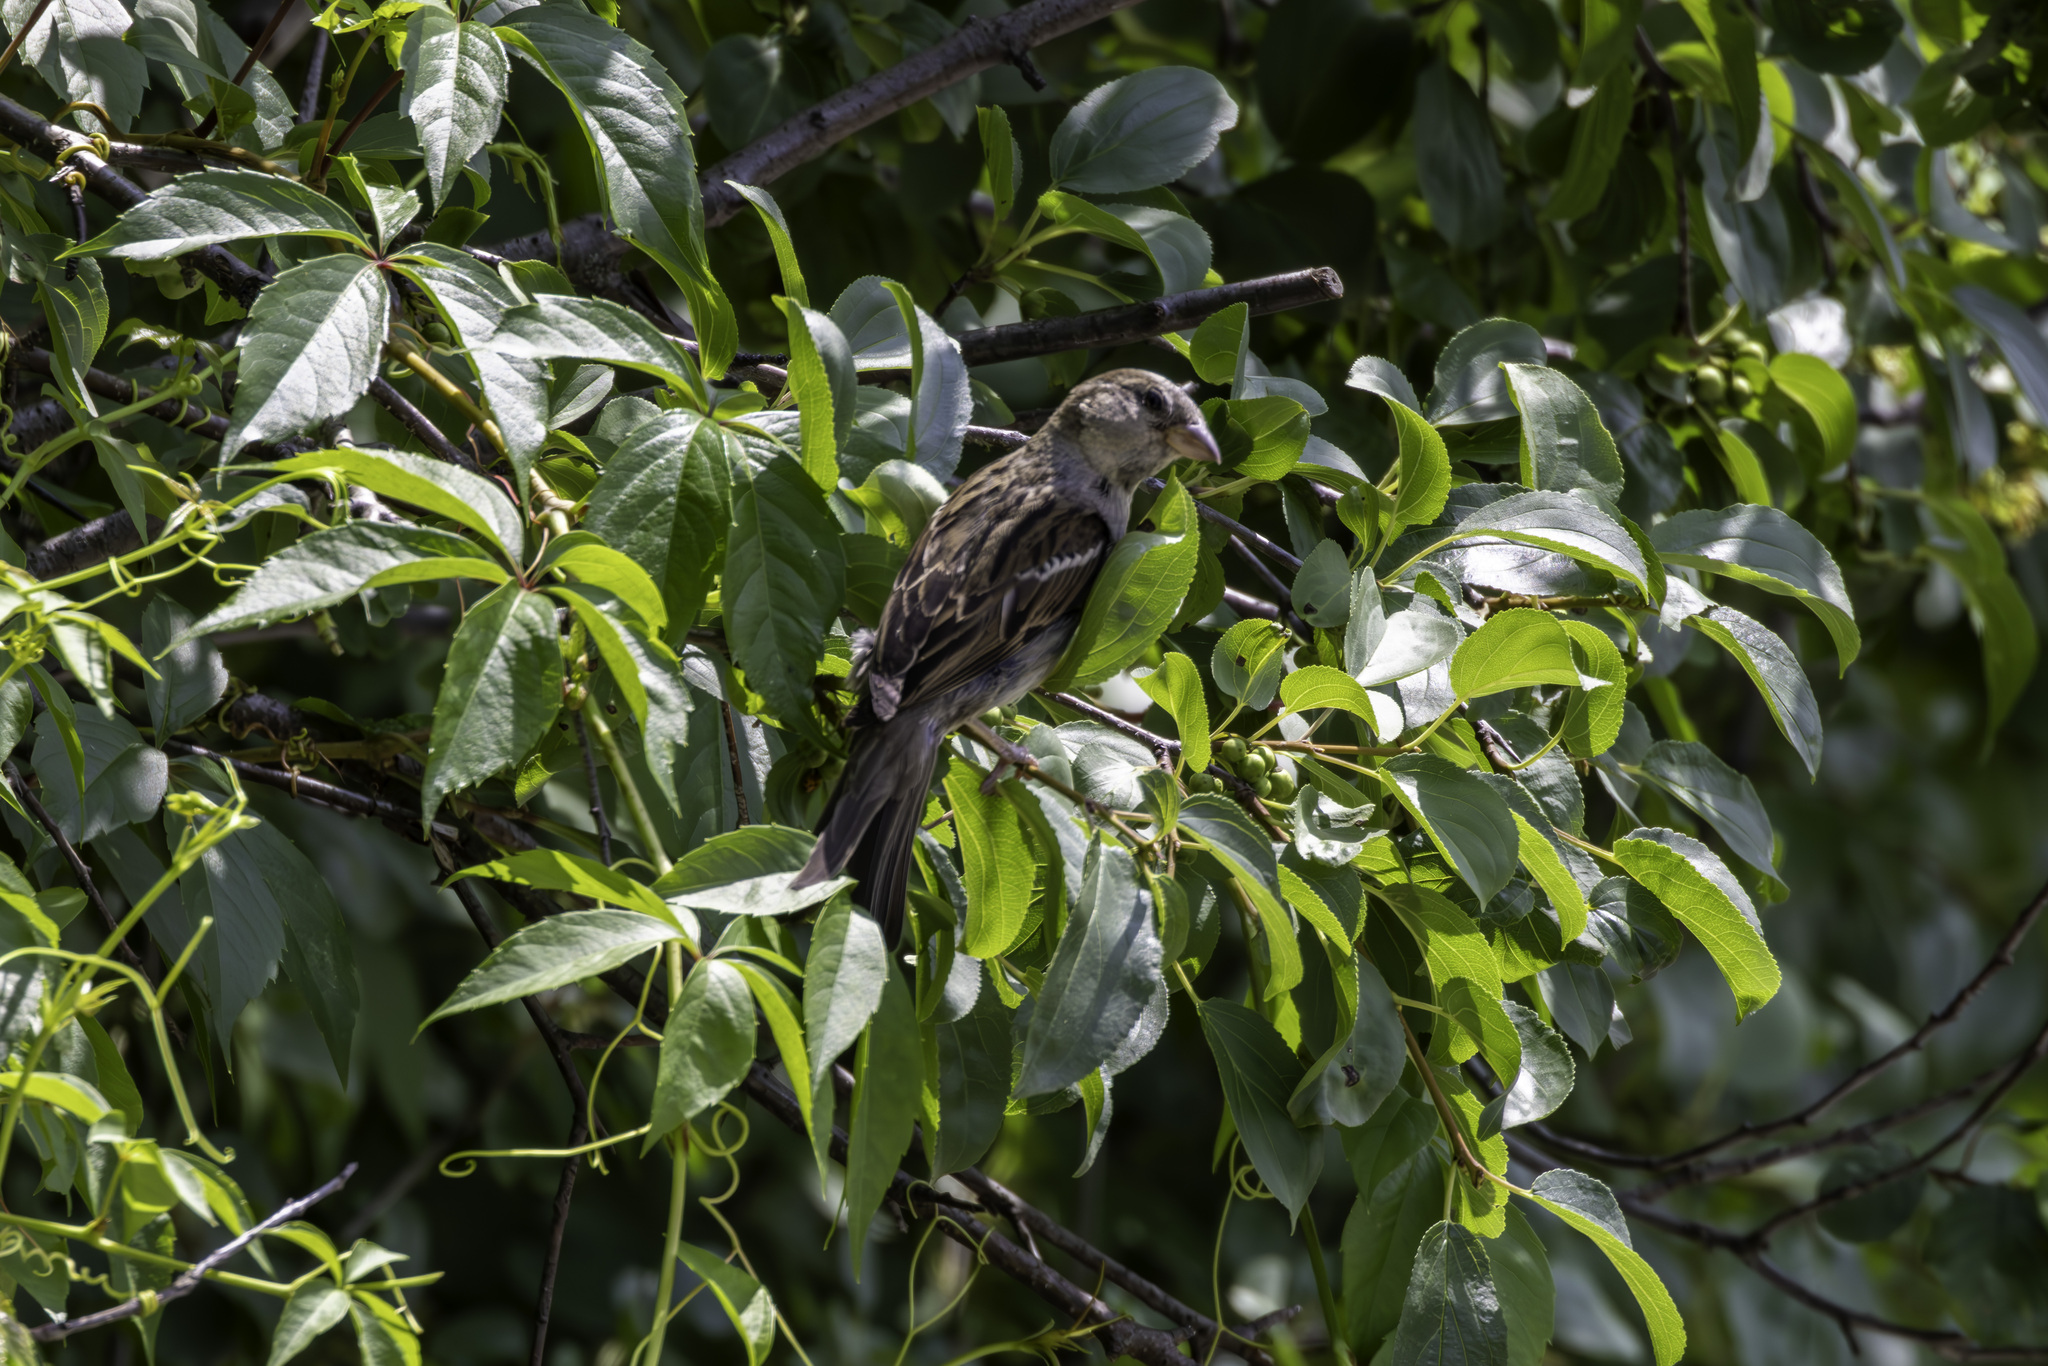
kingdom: Animalia
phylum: Chordata
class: Aves
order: Passeriformes
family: Passeridae
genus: Passer
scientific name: Passer domesticus
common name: House sparrow
